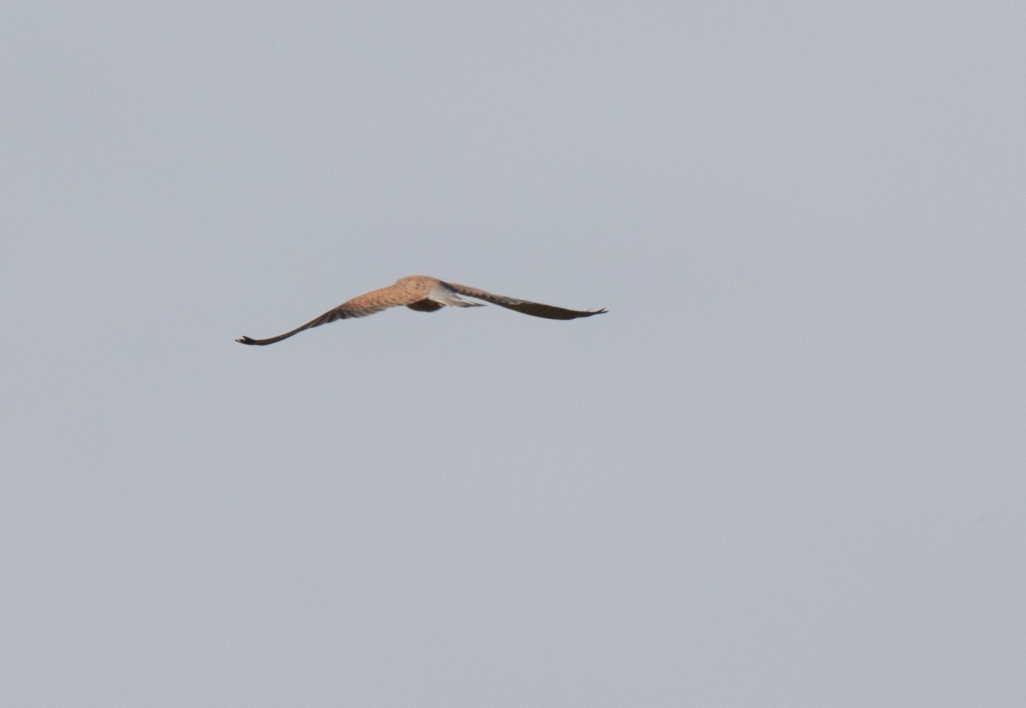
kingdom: Animalia
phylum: Chordata
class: Aves
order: Falconiformes
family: Falconidae
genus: Falco
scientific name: Falco tinnunculus
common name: Common kestrel
